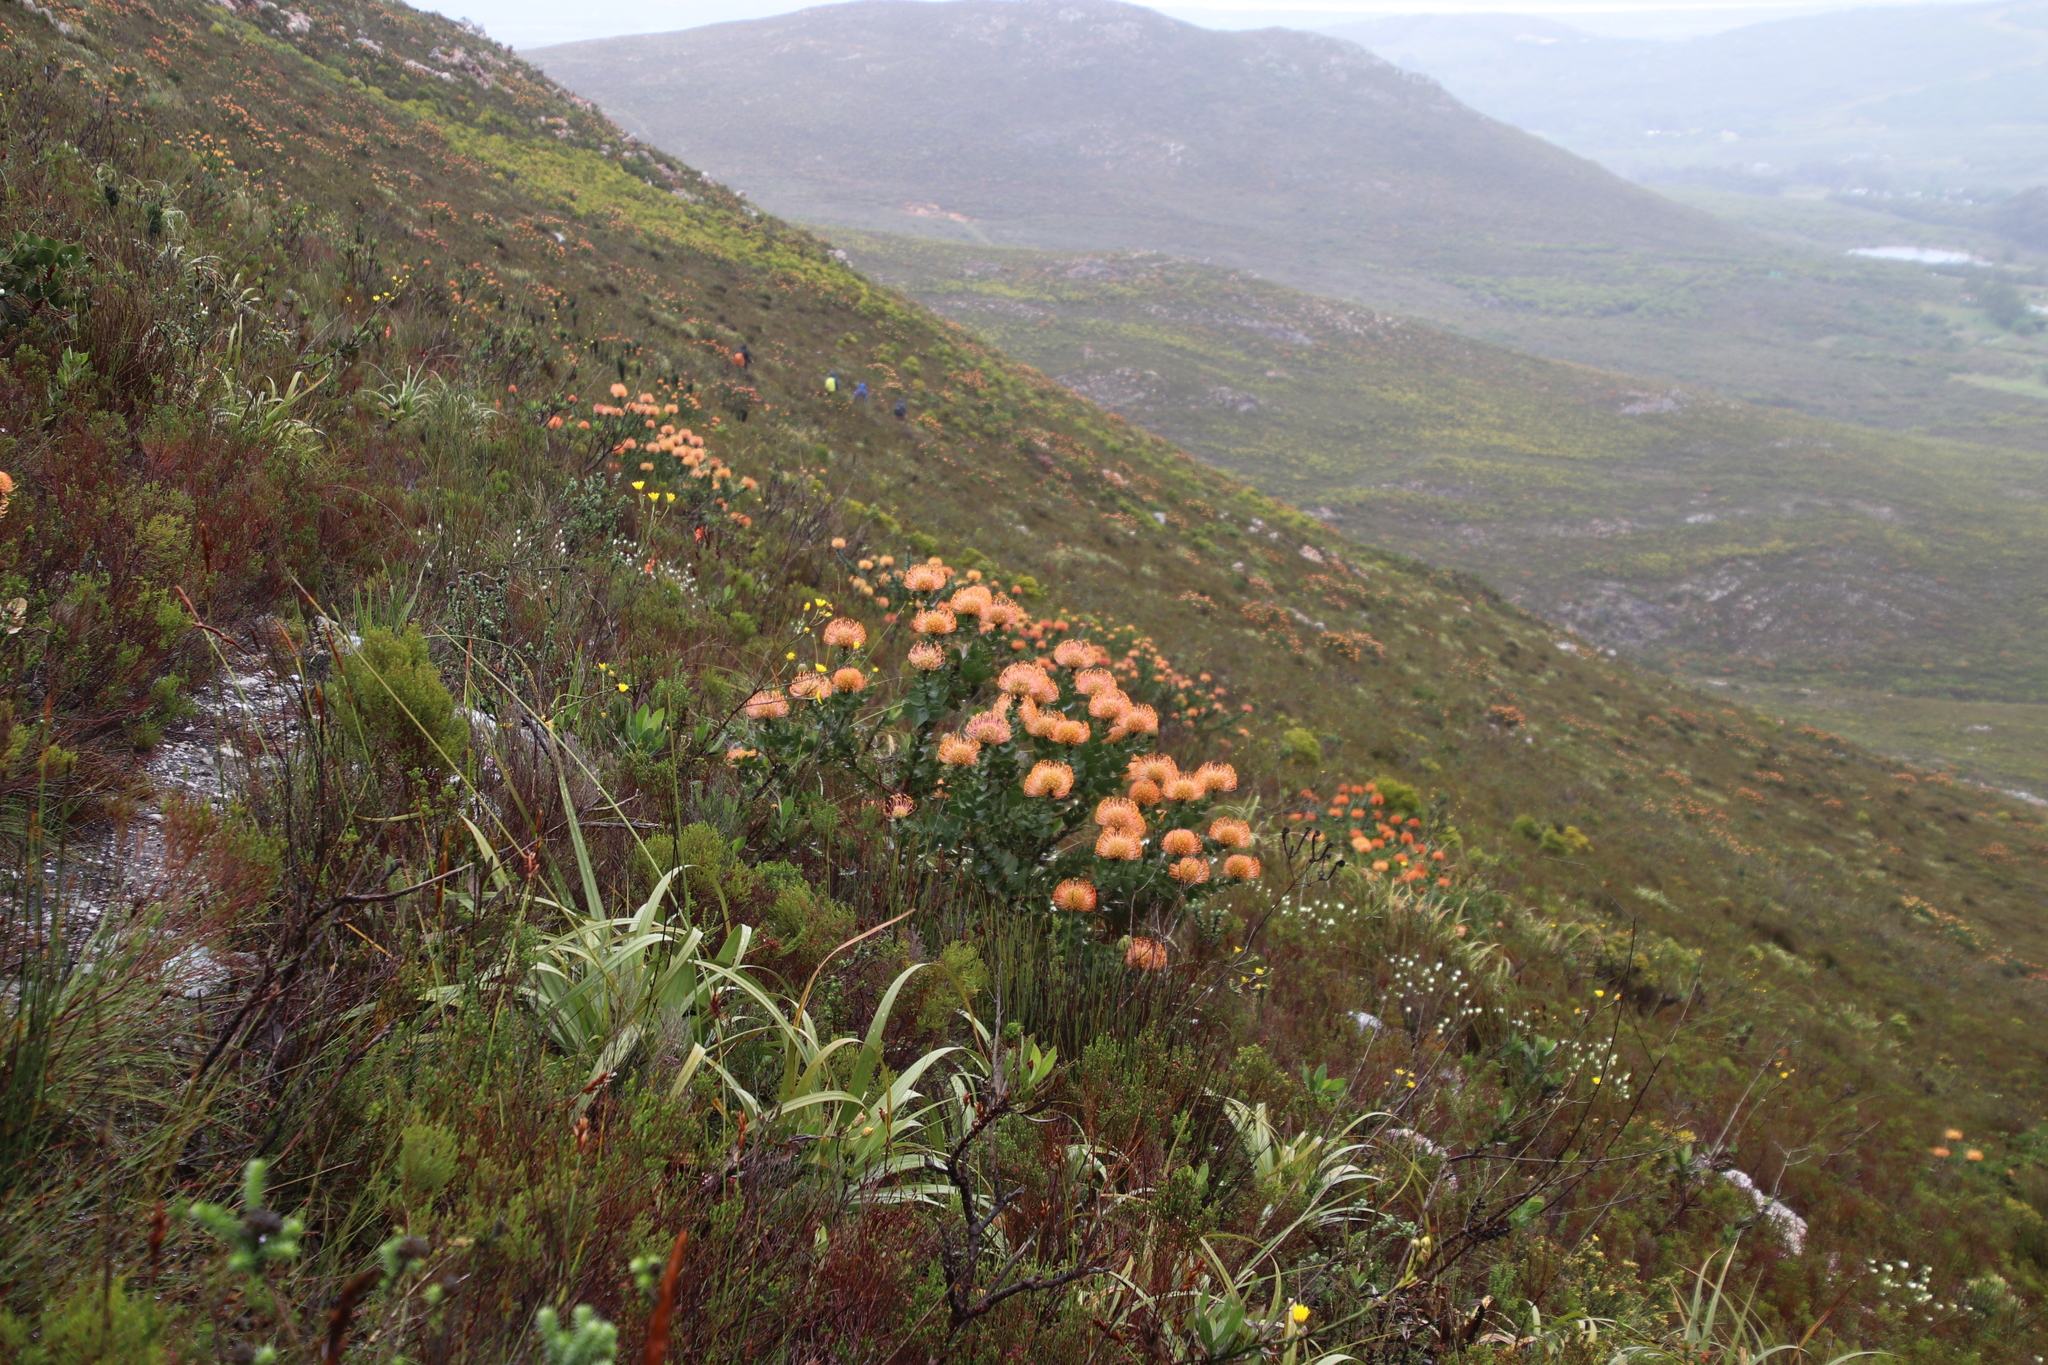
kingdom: Plantae
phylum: Tracheophyta
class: Magnoliopsida
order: Proteales
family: Proteaceae
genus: Leucospermum
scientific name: Leucospermum cordifolium
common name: Red pincushion-protea
